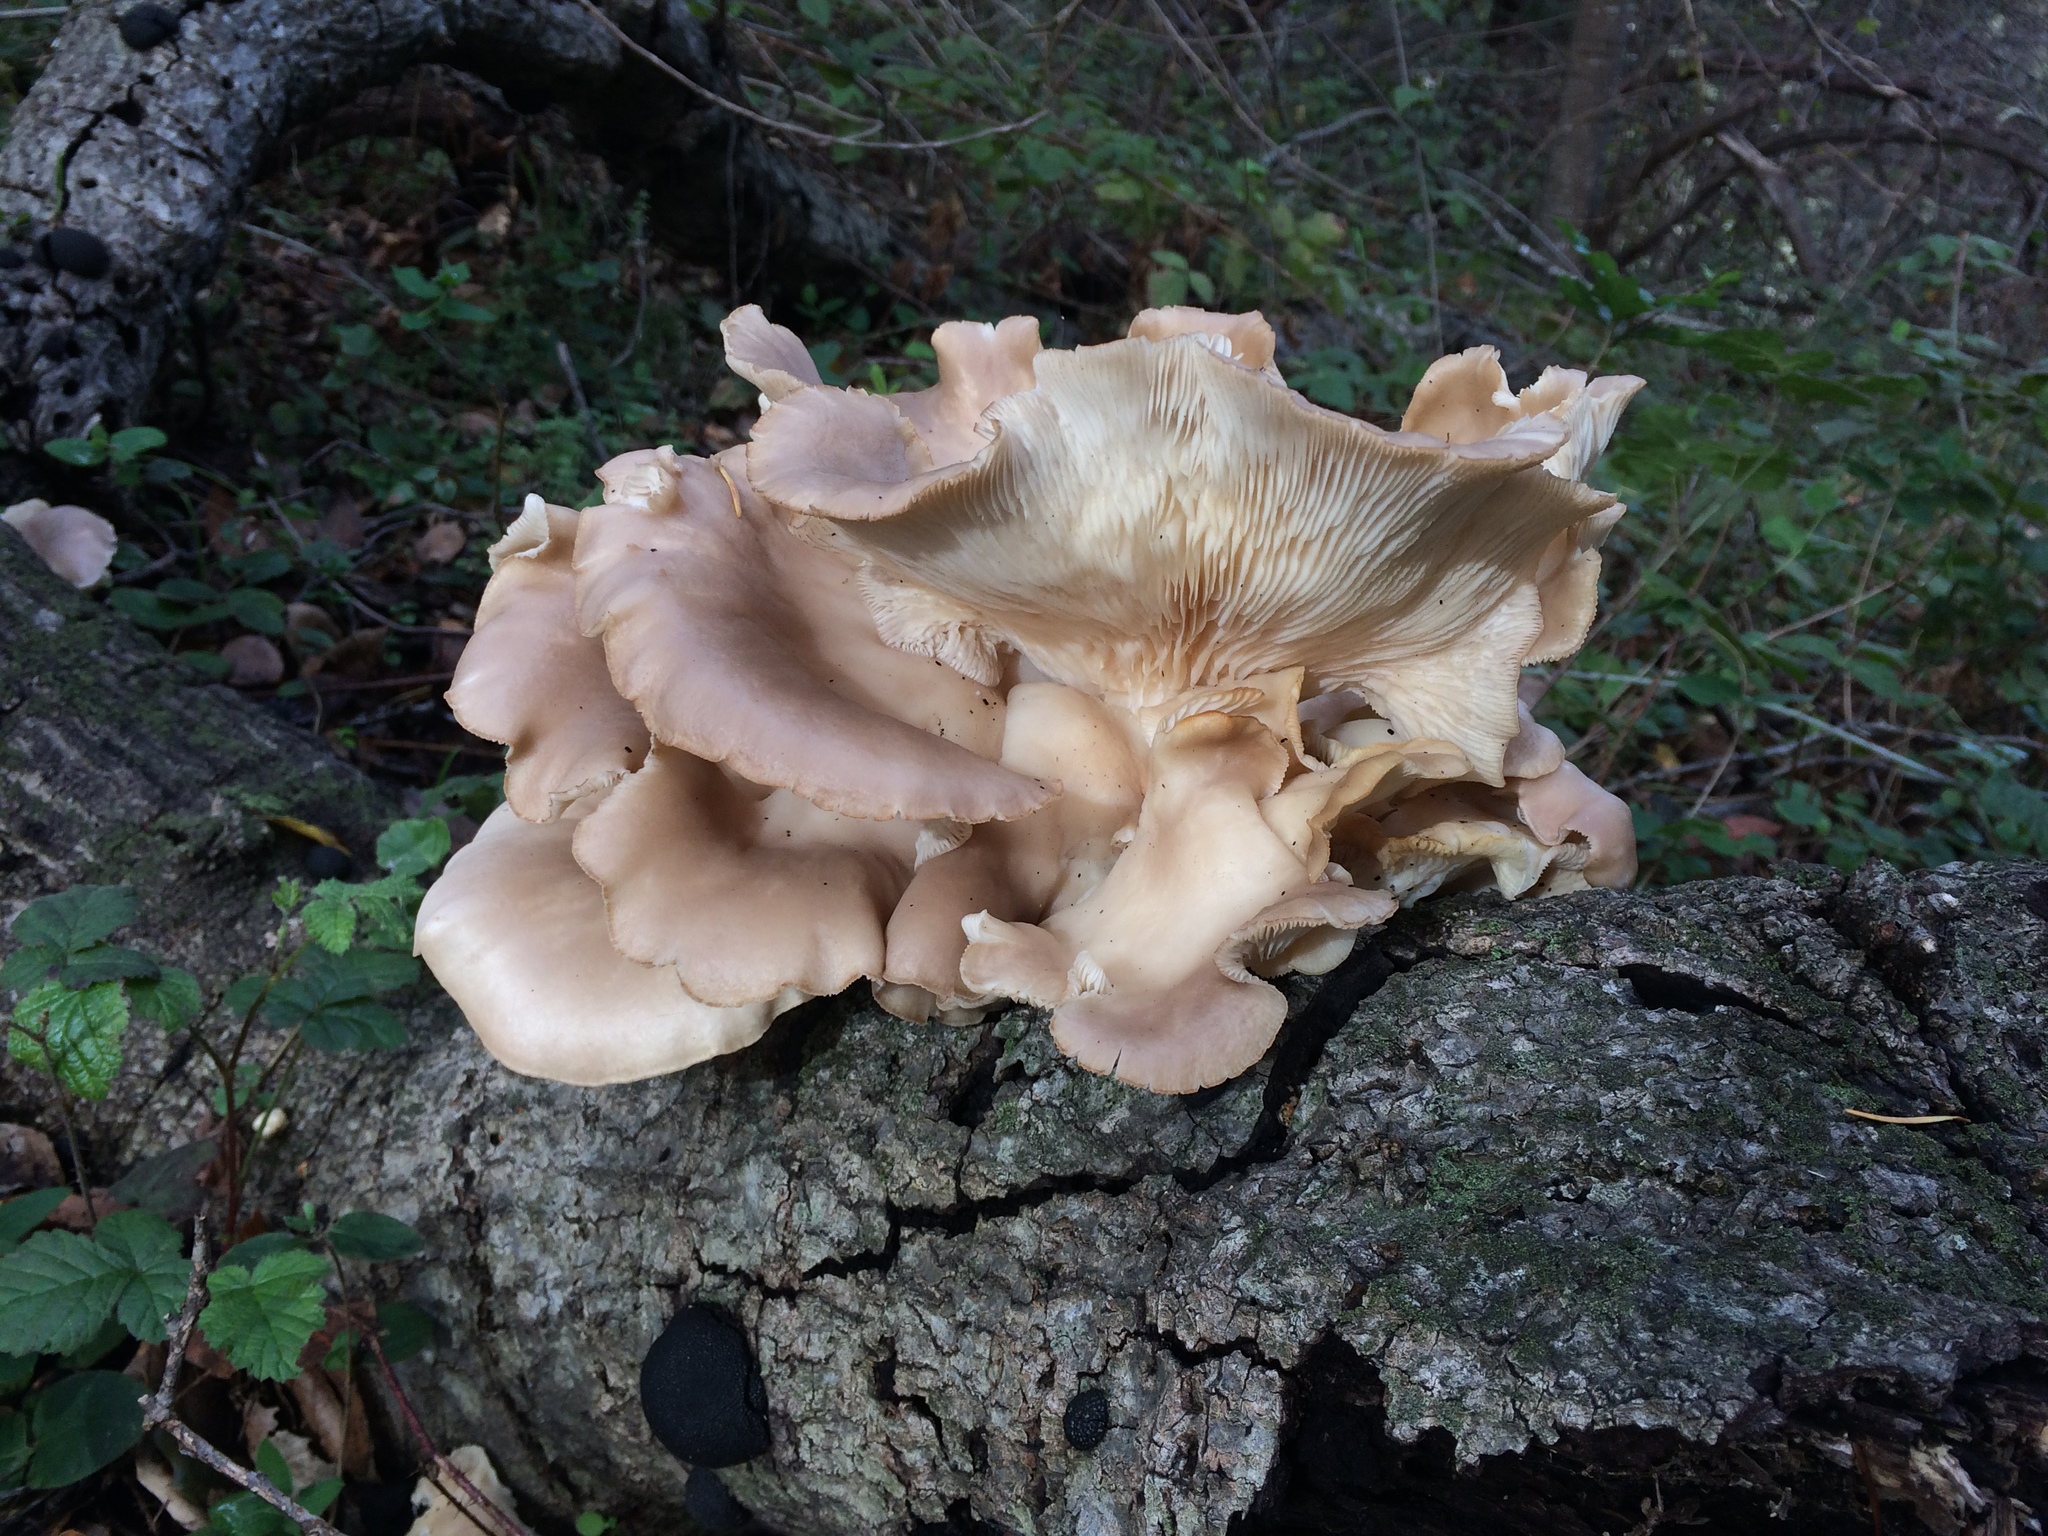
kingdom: Fungi
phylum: Basidiomycota
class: Agaricomycetes
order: Agaricales
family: Pleurotaceae
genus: Pleurotus
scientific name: Pleurotus ostreatus
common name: Oyster mushroom
